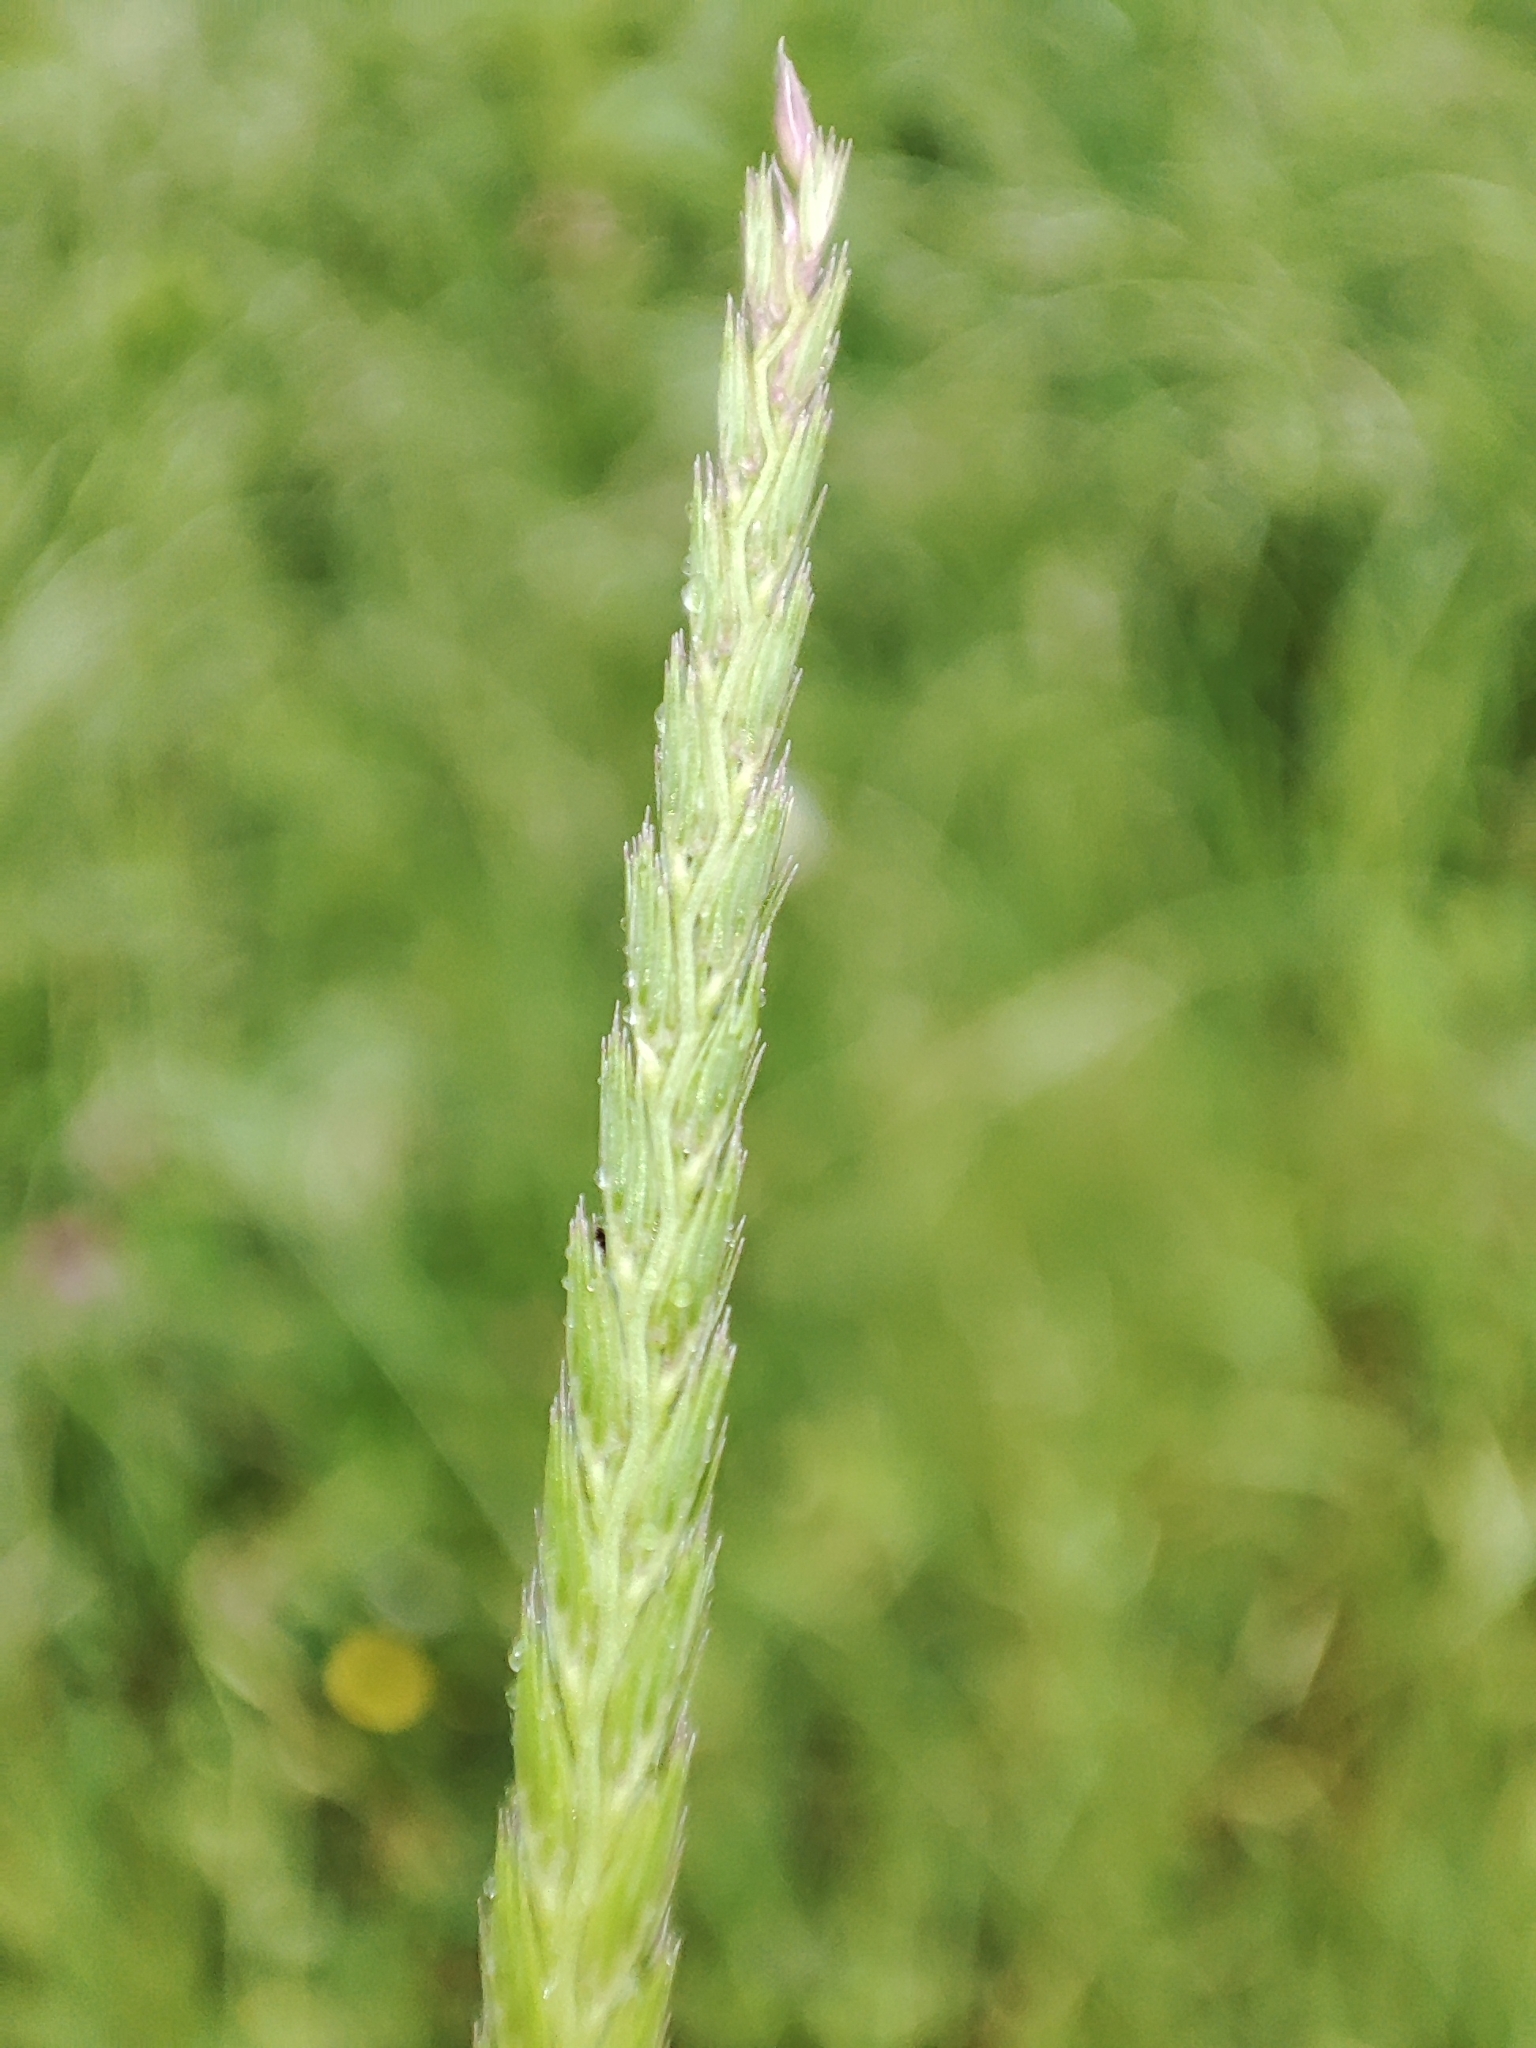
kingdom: Plantae
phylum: Tracheophyta
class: Liliopsida
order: Poales
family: Poaceae
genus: Cynosurus
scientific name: Cynosurus cristatus
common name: Crested dog's-tail
